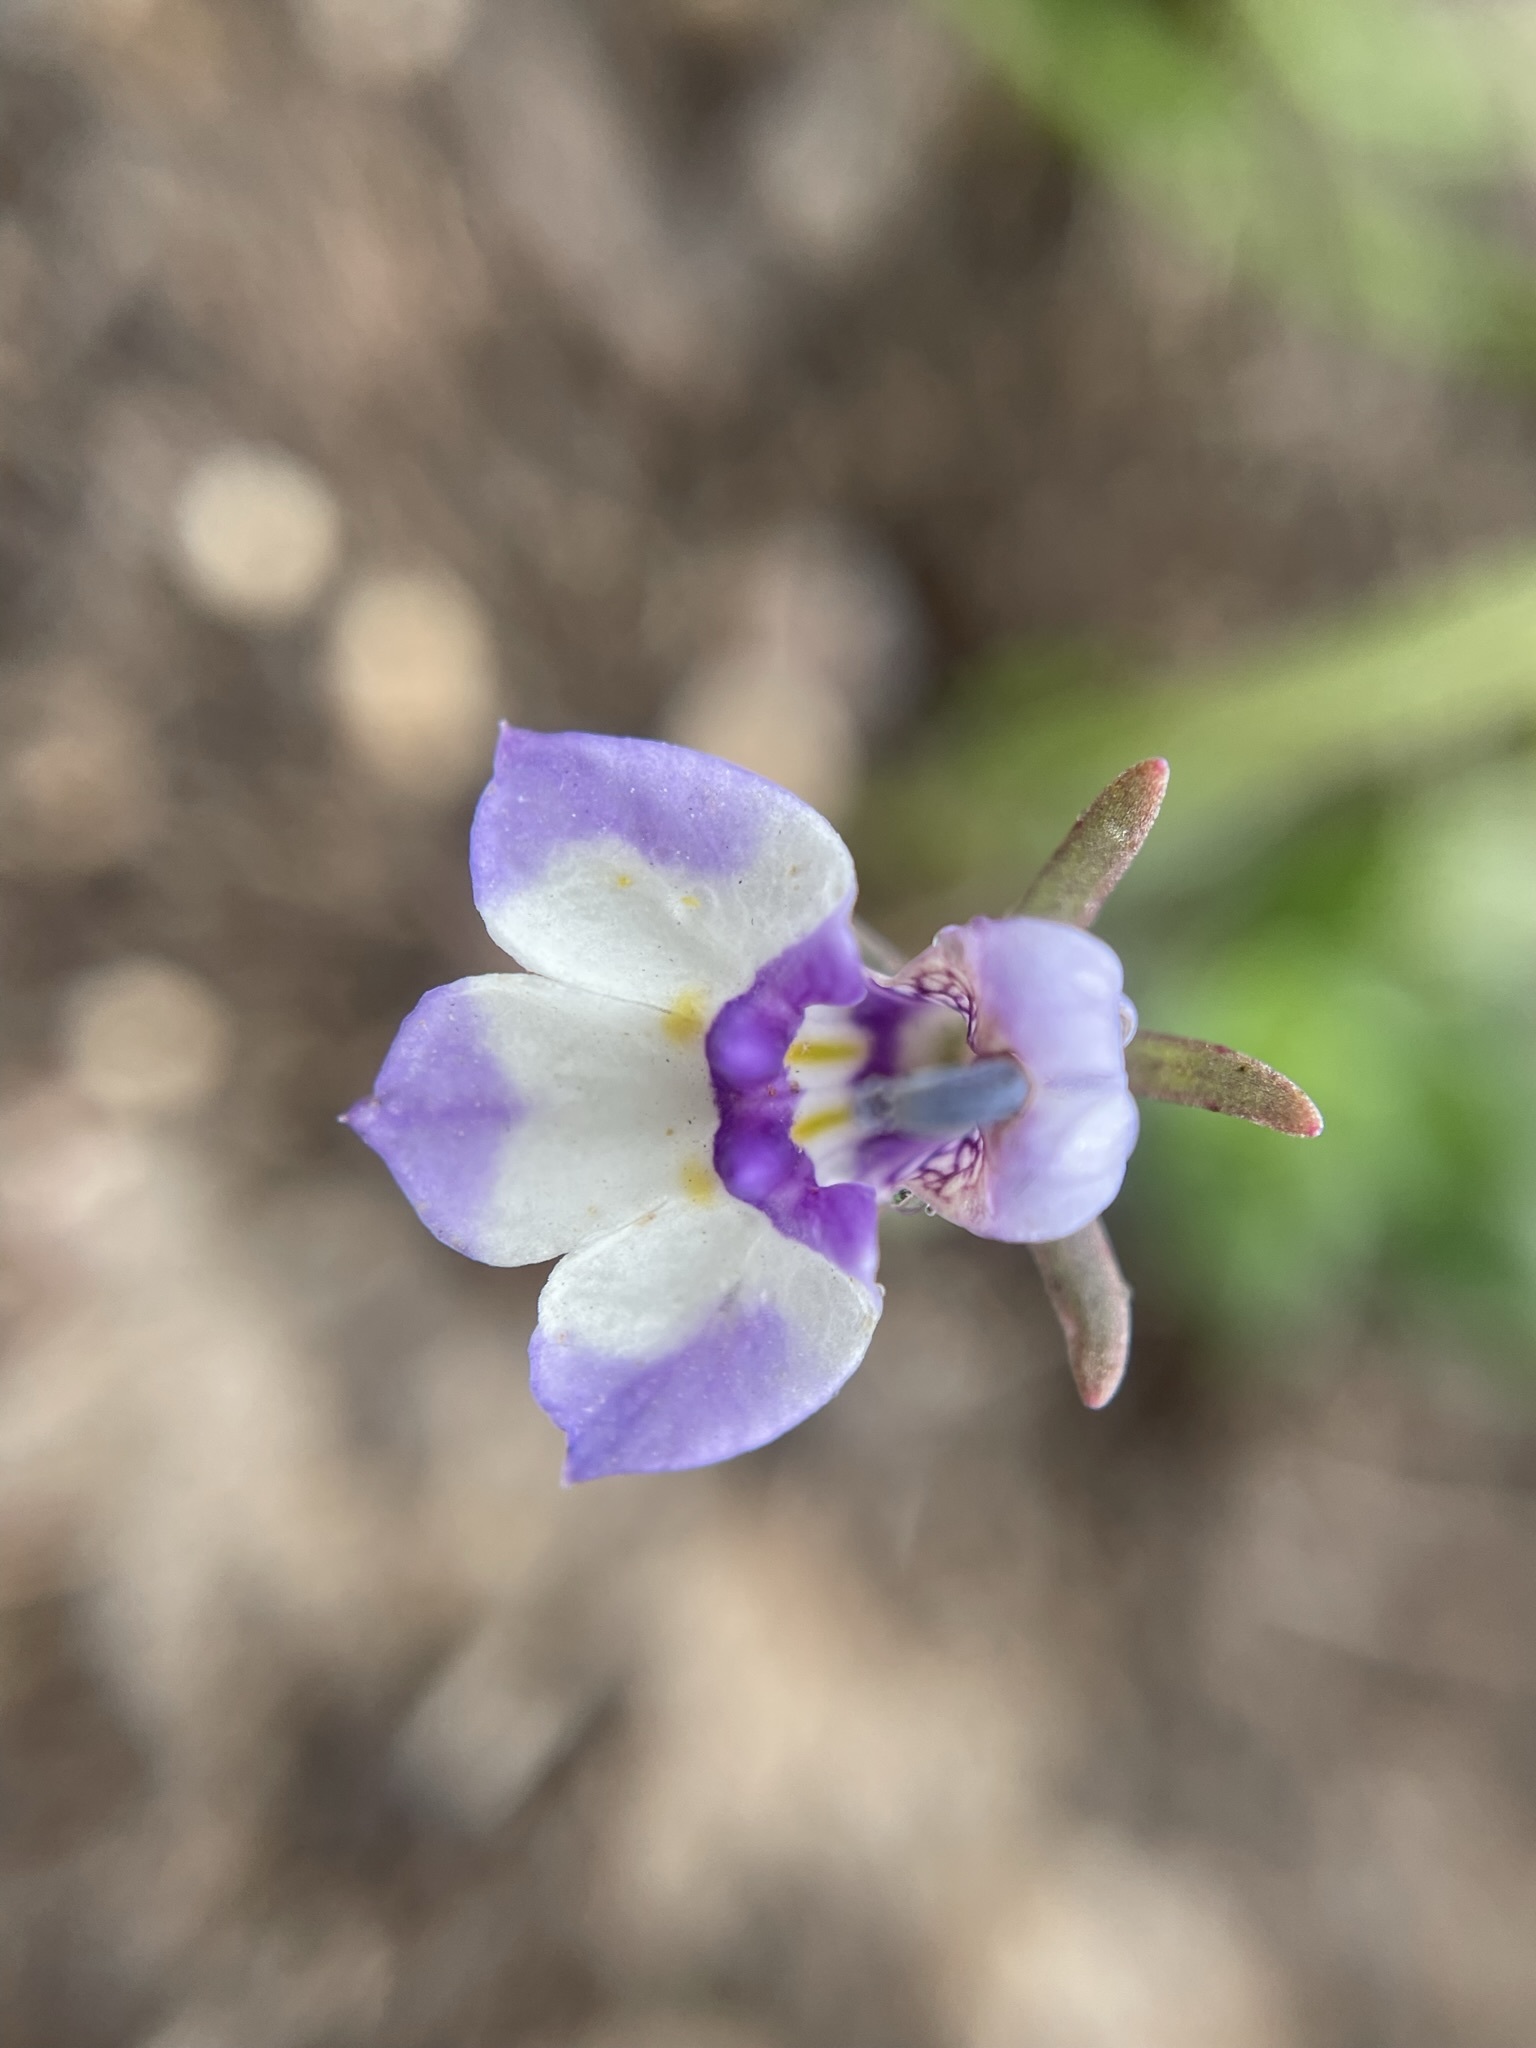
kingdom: Plantae
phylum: Tracheophyta
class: Magnoliopsida
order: Asterales
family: Campanulaceae
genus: Downingia
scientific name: Downingia bicornuta
